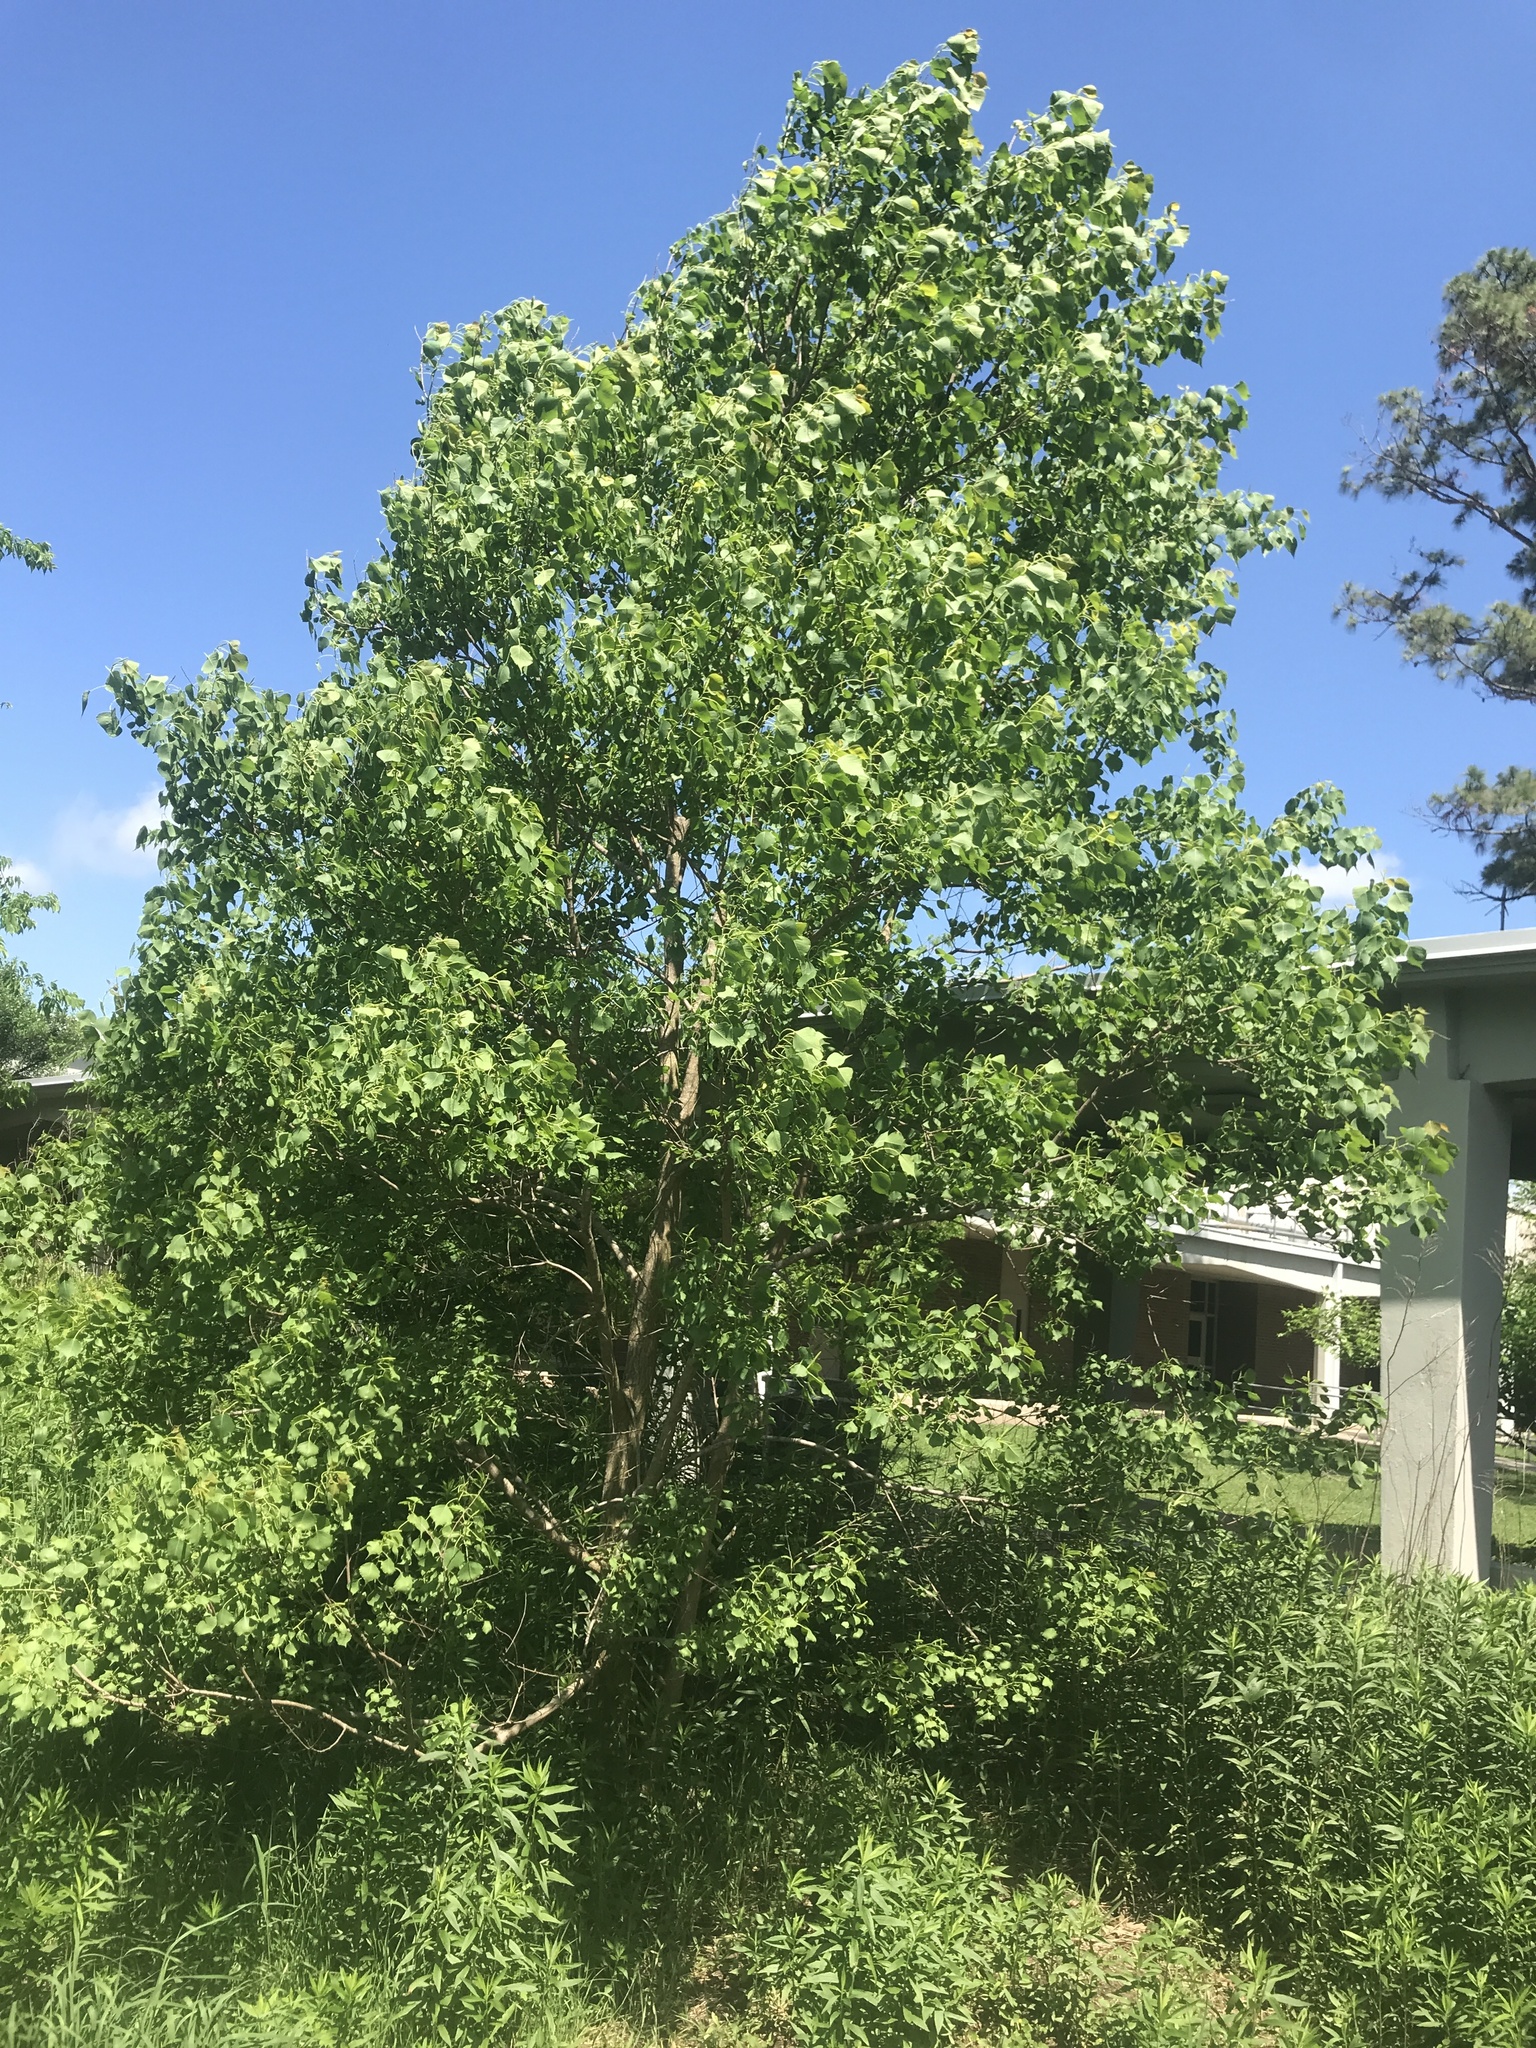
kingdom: Plantae
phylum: Tracheophyta
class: Magnoliopsida
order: Malpighiales
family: Euphorbiaceae
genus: Triadica
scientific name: Triadica sebifera
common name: Chinese tallow
